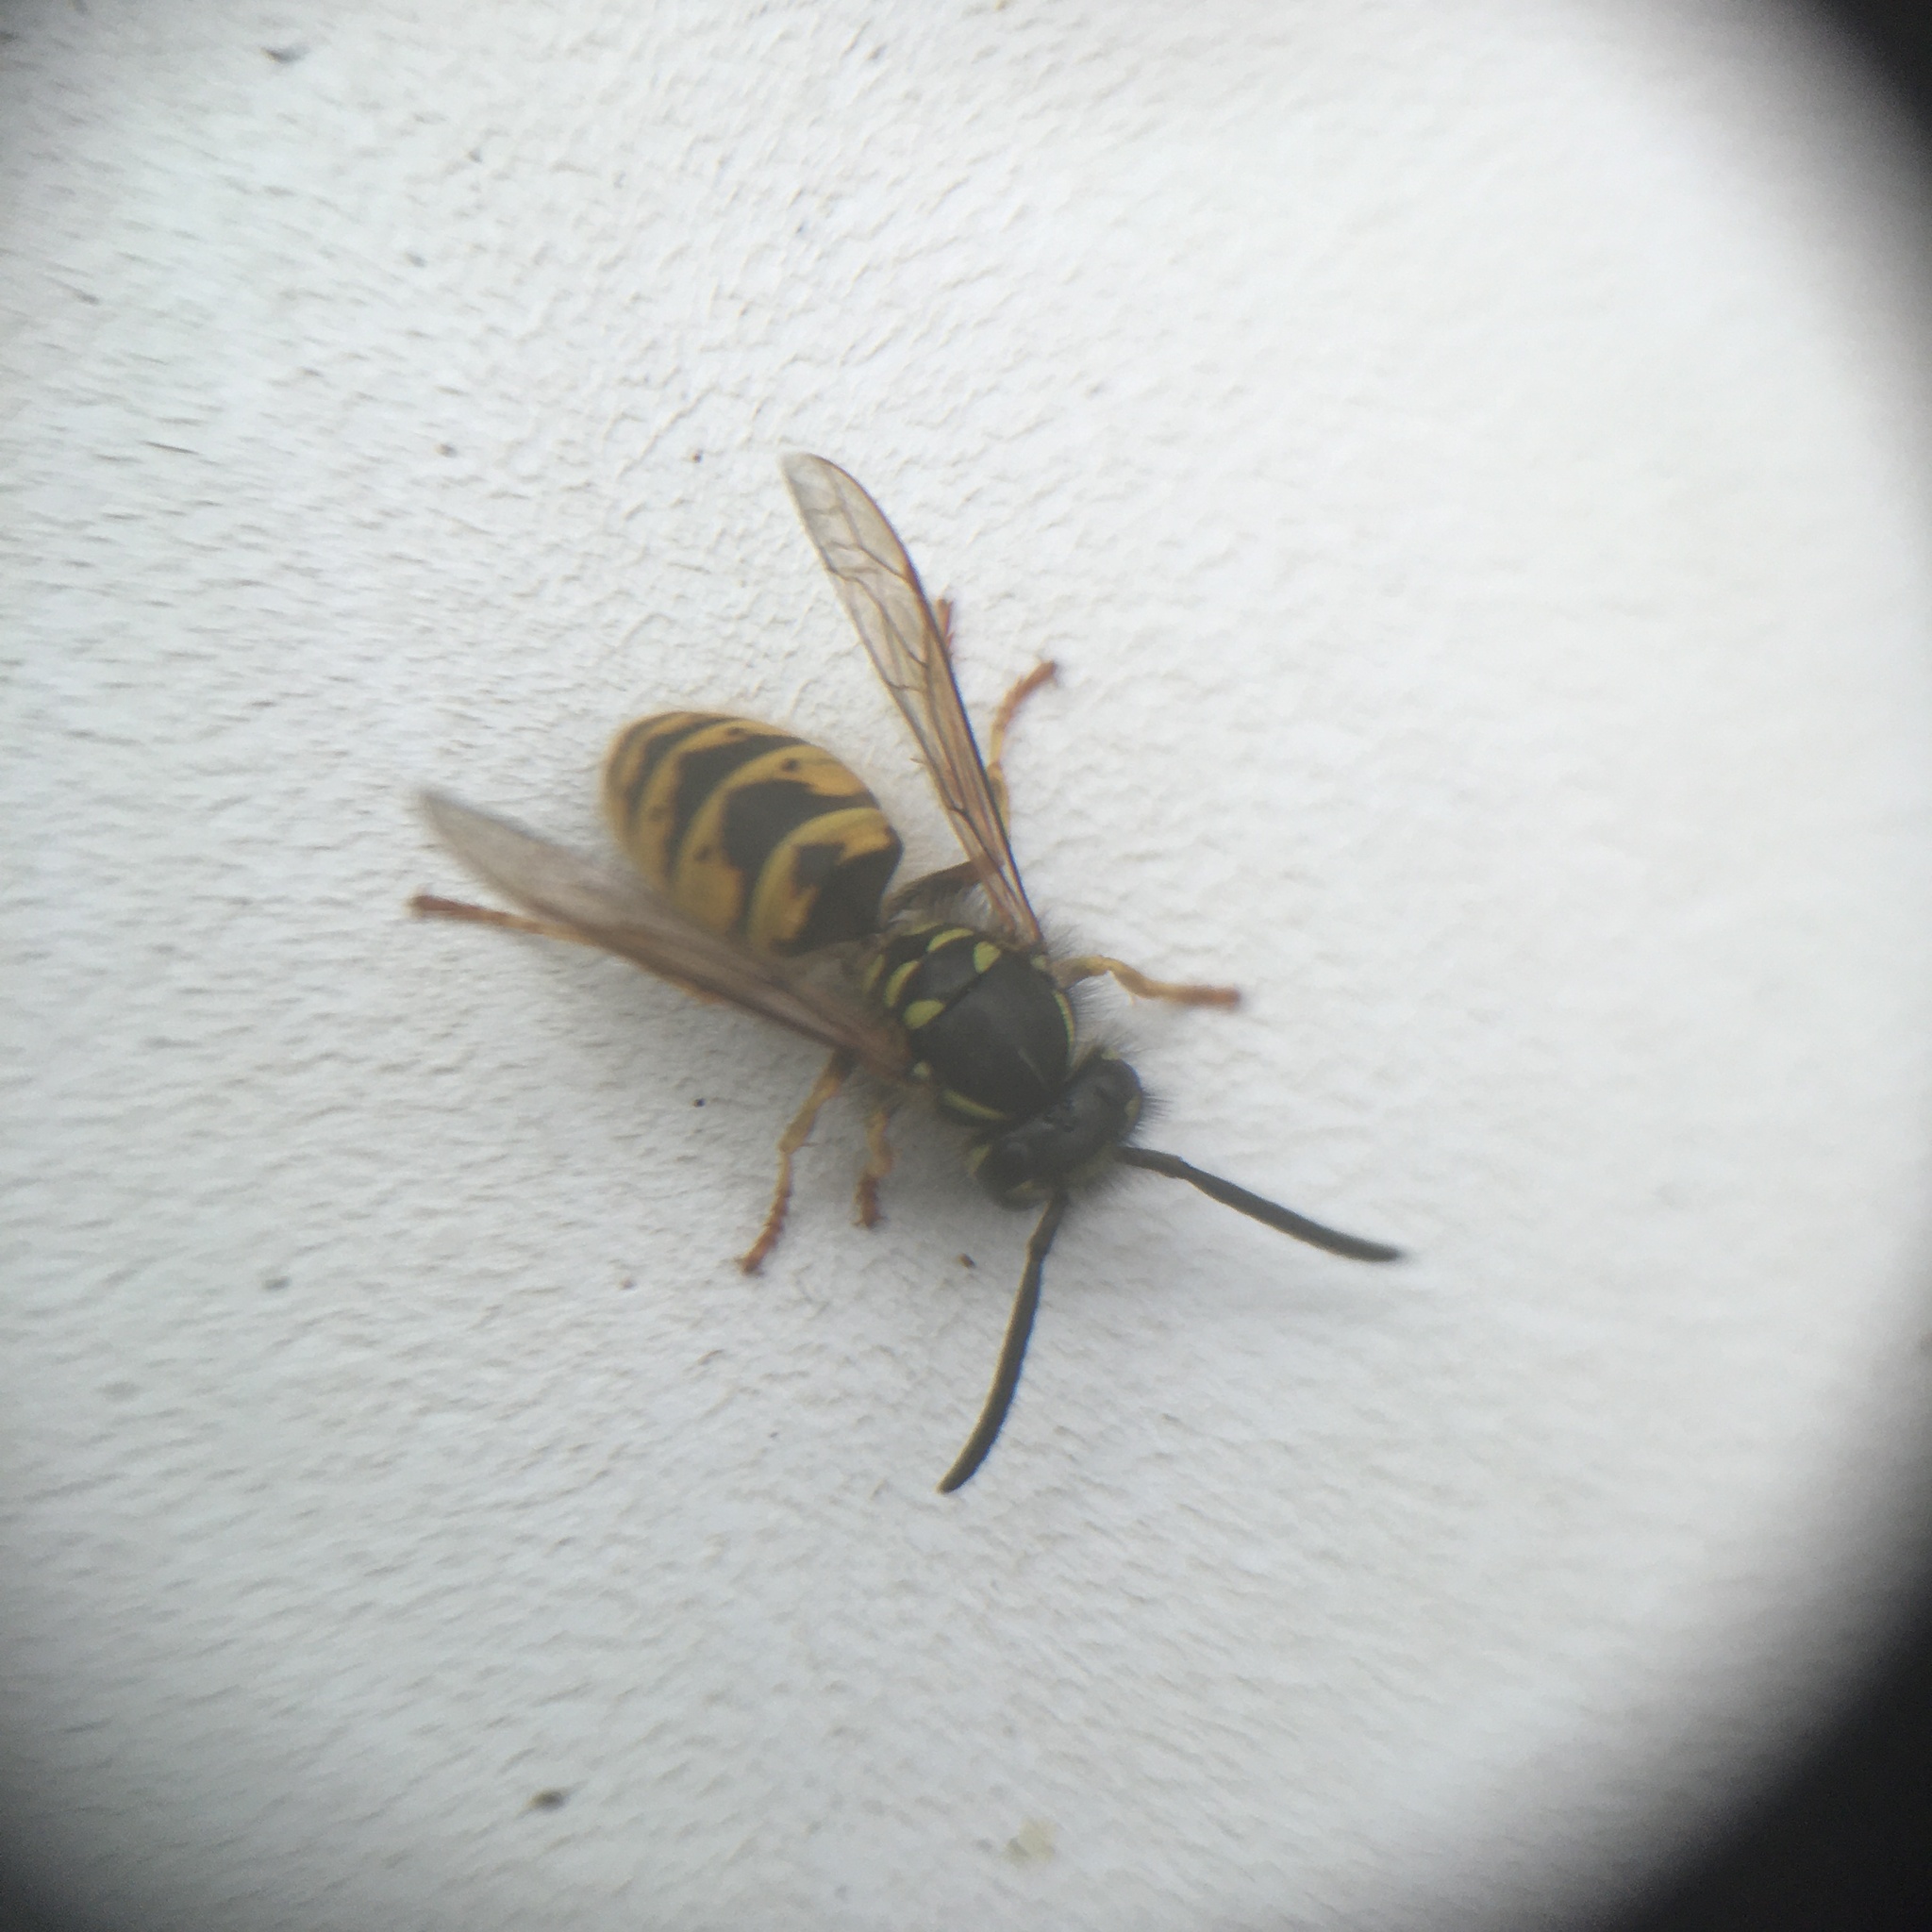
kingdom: Animalia
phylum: Arthropoda
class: Insecta
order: Hymenoptera
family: Vespidae
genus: Vespula
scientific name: Vespula vulgaris
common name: Common wasp
